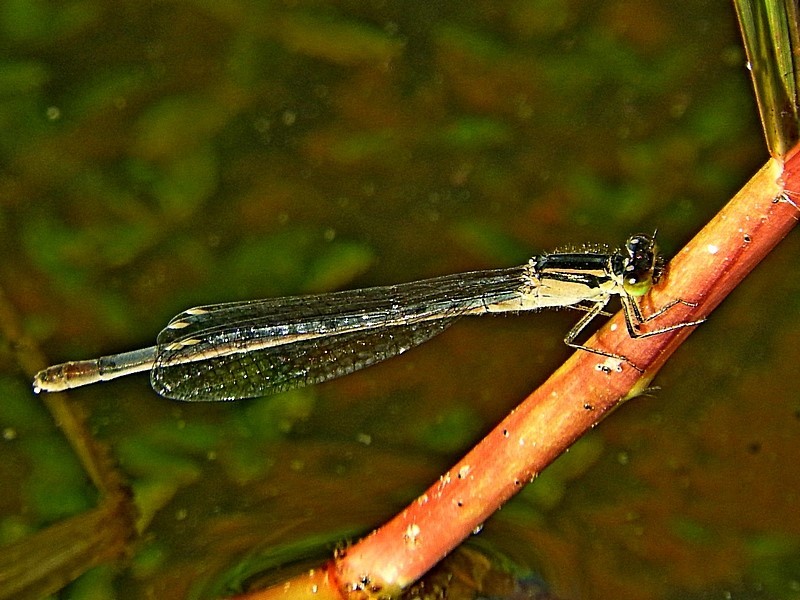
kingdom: Animalia
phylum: Arthropoda
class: Insecta
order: Odonata
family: Coenagrionidae
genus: Ischnura
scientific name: Ischnura heterosticta
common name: Common bluetail
